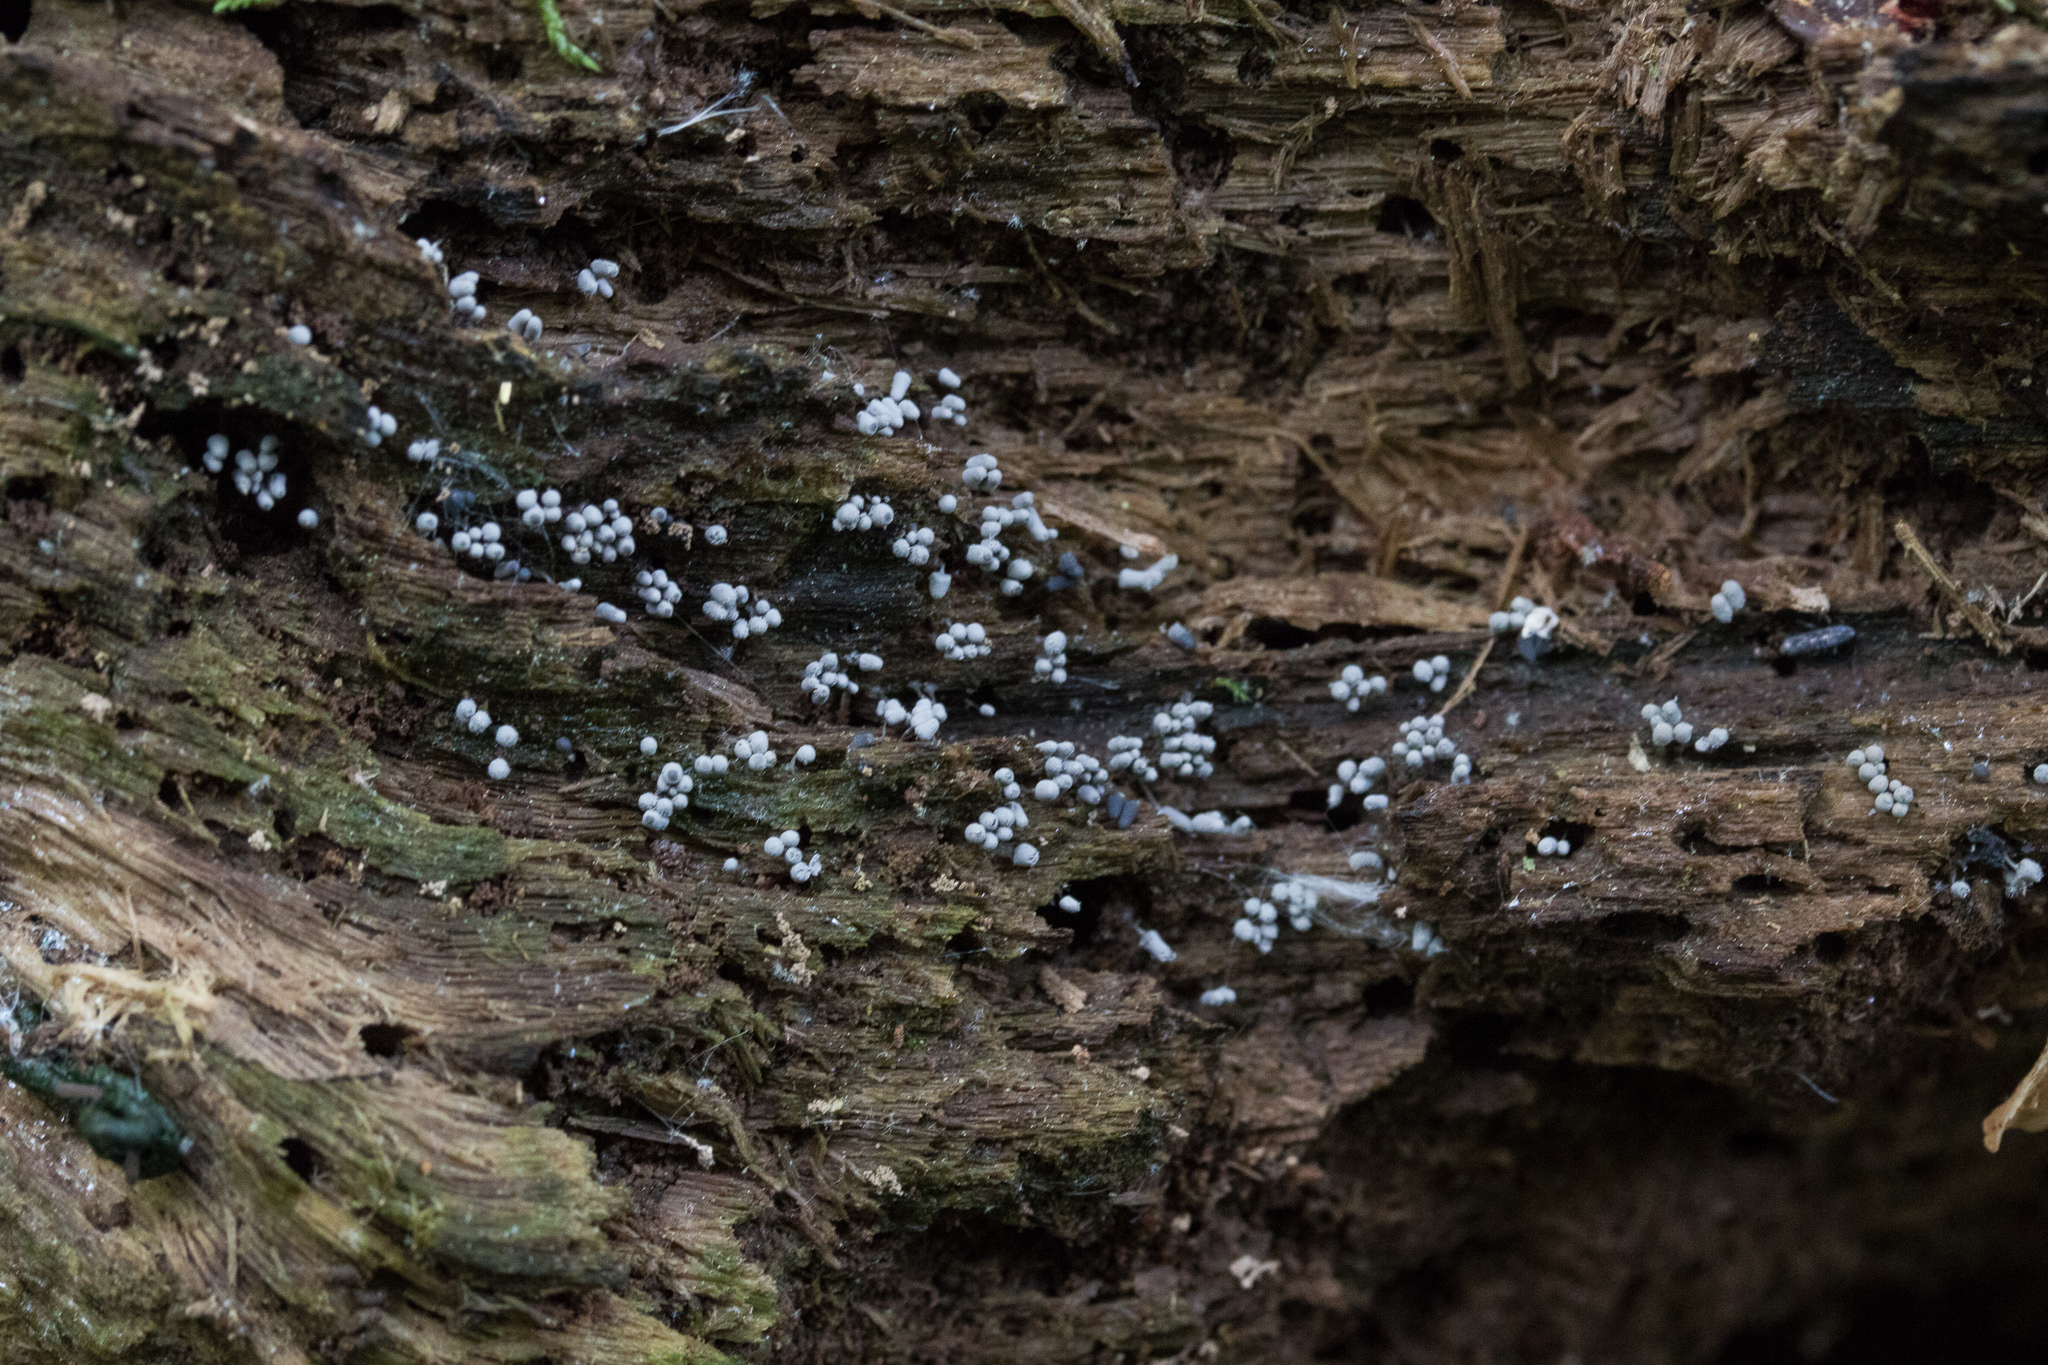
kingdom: Protozoa
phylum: Mycetozoa
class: Myxomycetes
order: Trichiales
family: Arcyriaceae
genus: Arcyria
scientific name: Arcyria cinerea
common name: White carnival candy slime mold
